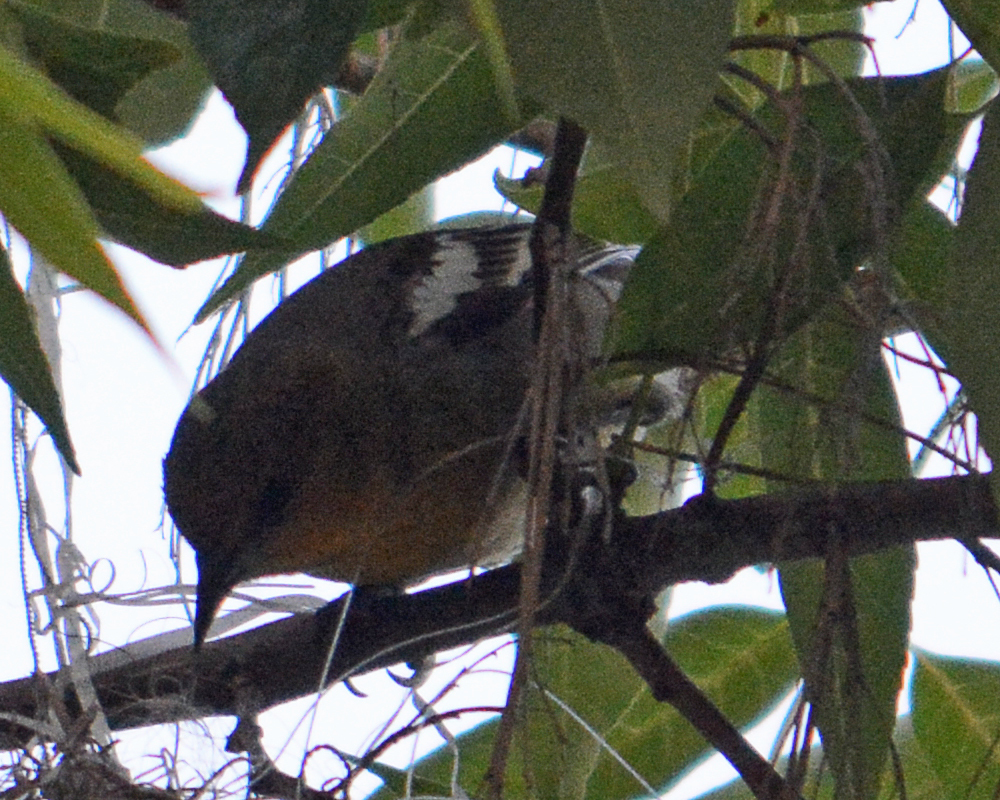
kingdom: Animalia
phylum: Chordata
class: Aves
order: Passeriformes
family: Icteridae
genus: Icterus
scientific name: Icterus abeillei
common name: Black-backed oriole
